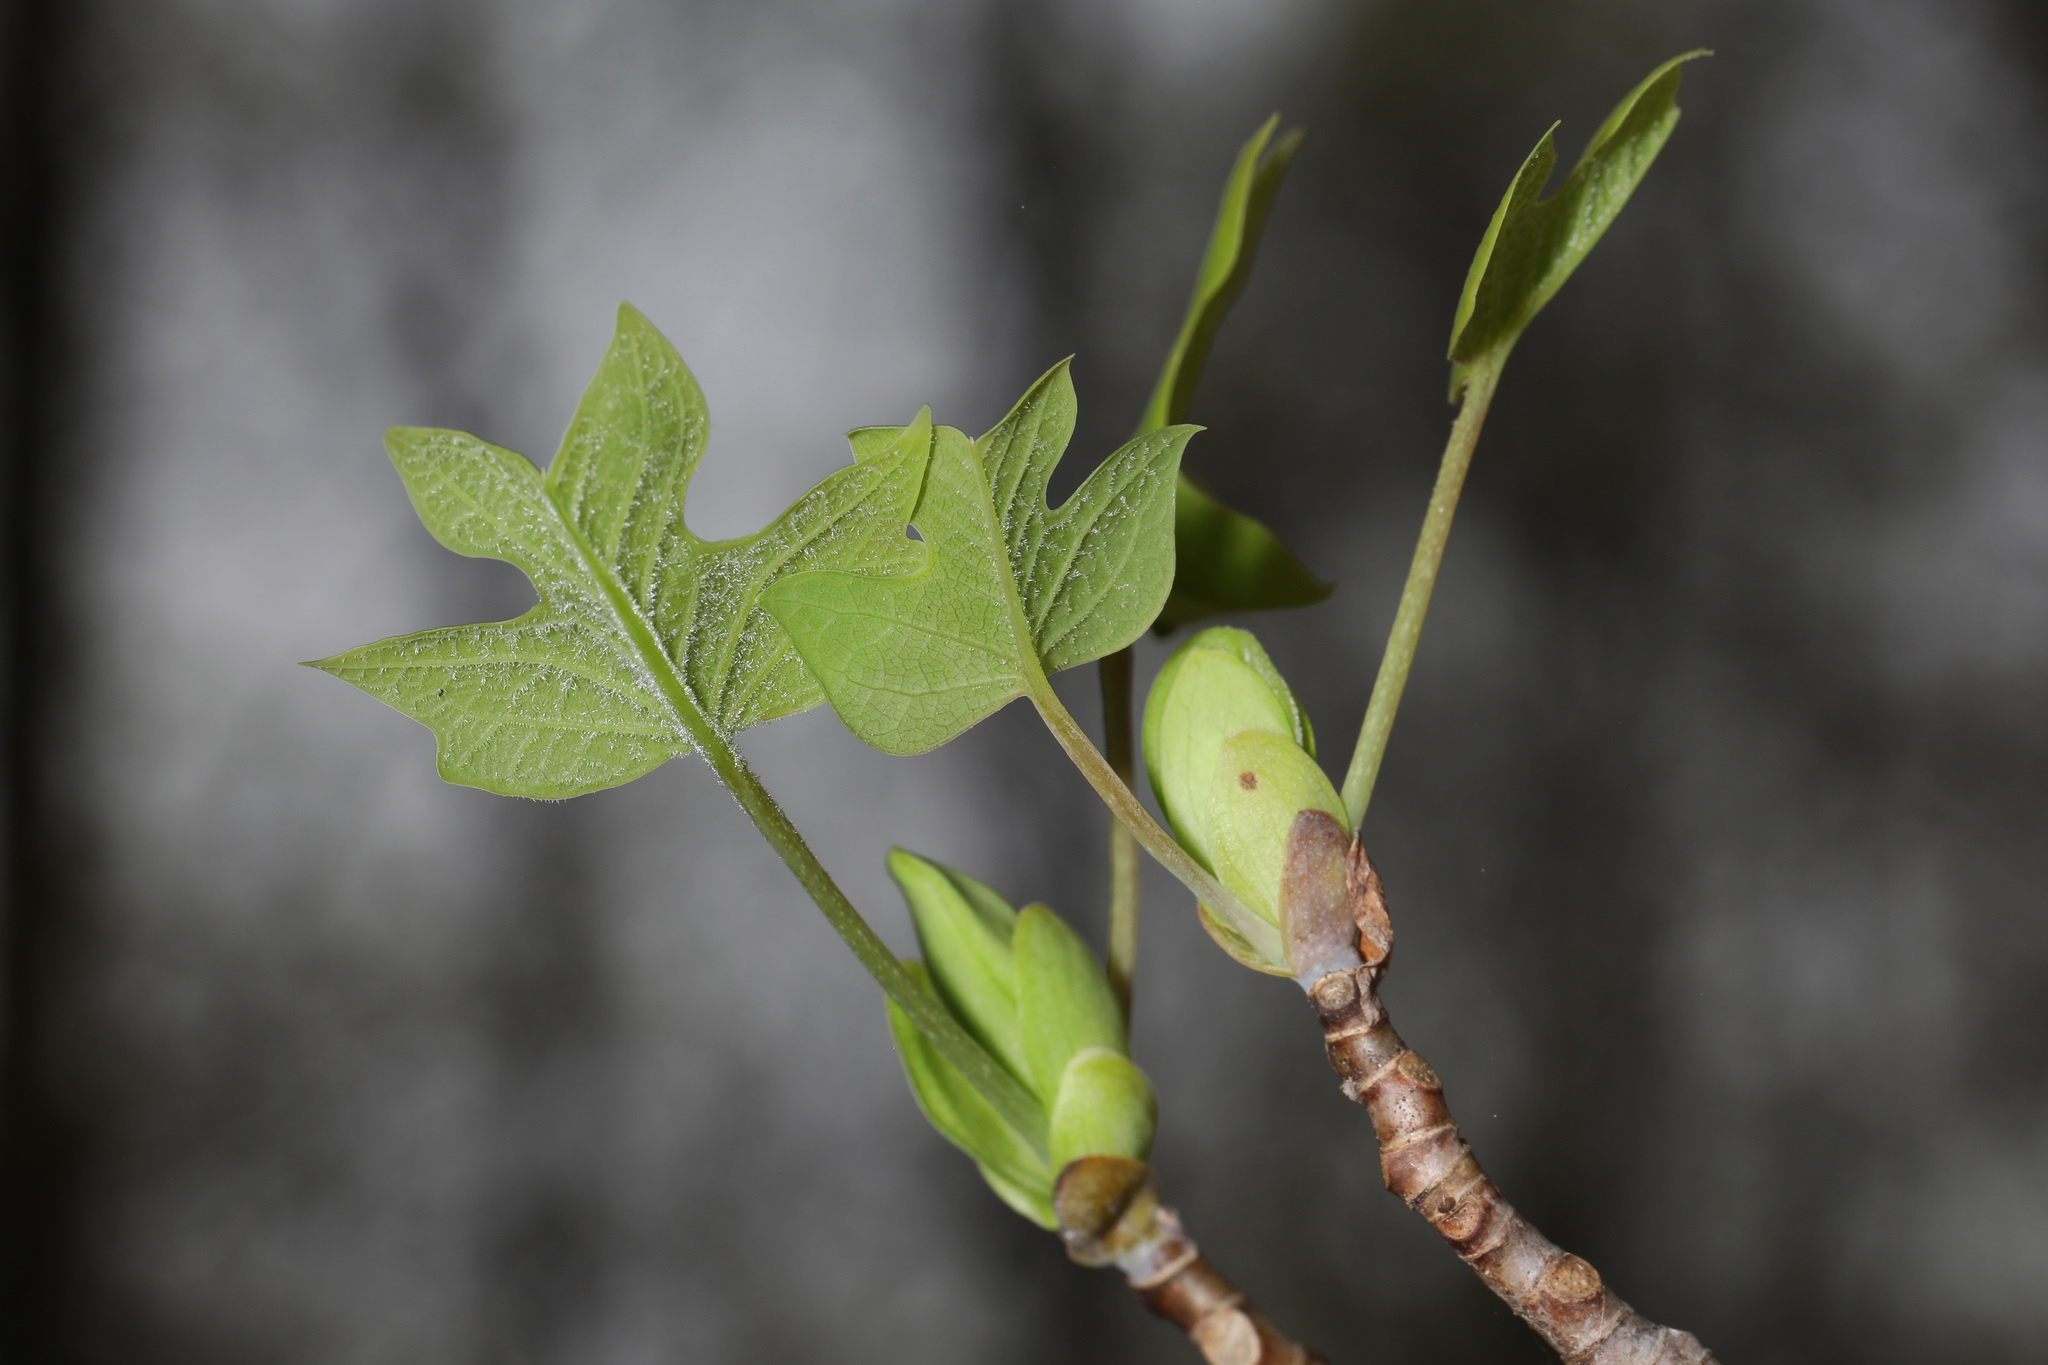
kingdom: Plantae
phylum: Tracheophyta
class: Magnoliopsida
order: Magnoliales
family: Magnoliaceae
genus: Liriodendron
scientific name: Liriodendron tulipifera
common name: Tulip tree
